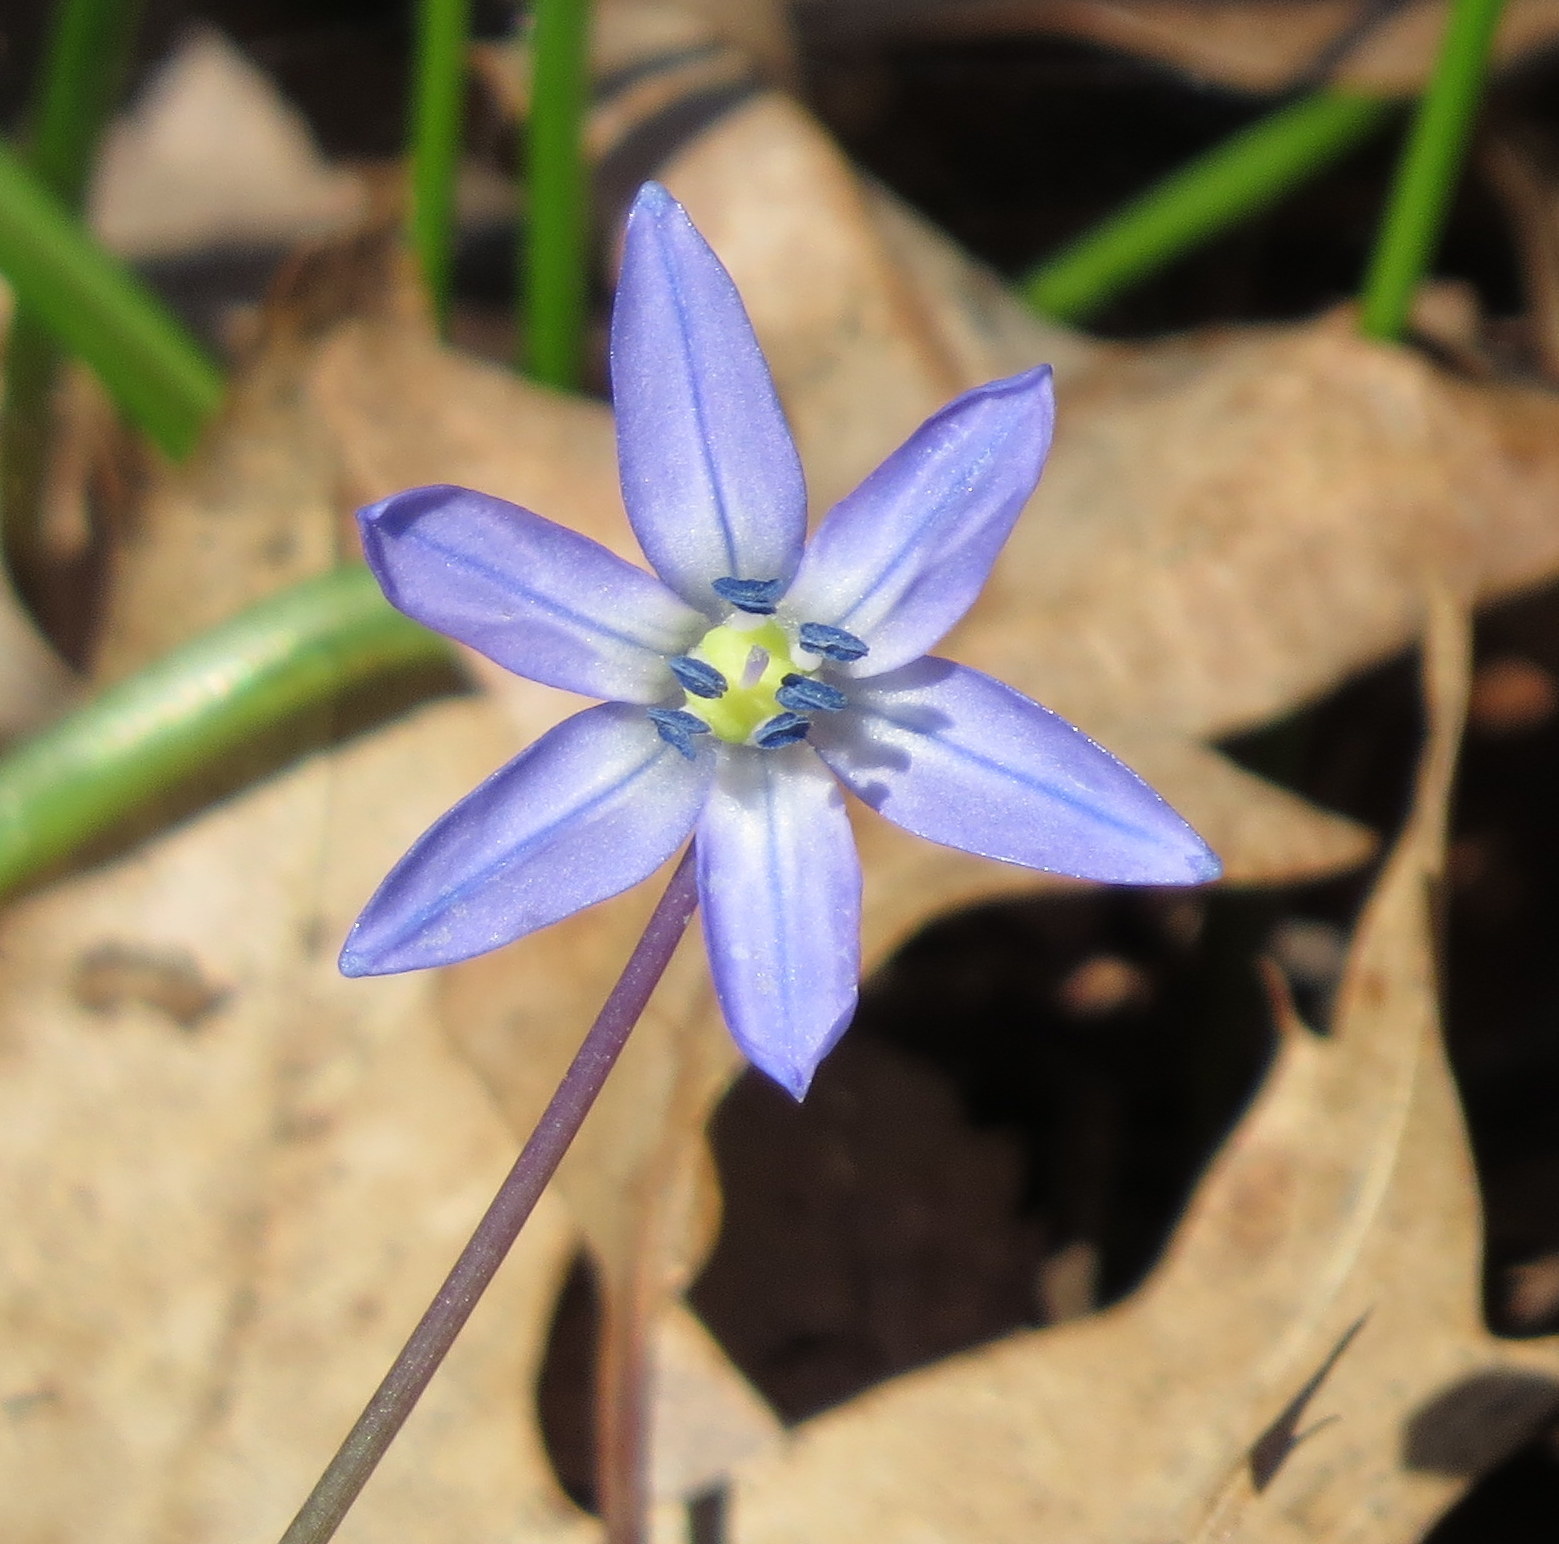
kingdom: Plantae
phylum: Tracheophyta
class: Liliopsida
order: Asparagales
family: Asparagaceae
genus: Scilla
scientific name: Scilla siberica
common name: Siberian squill
